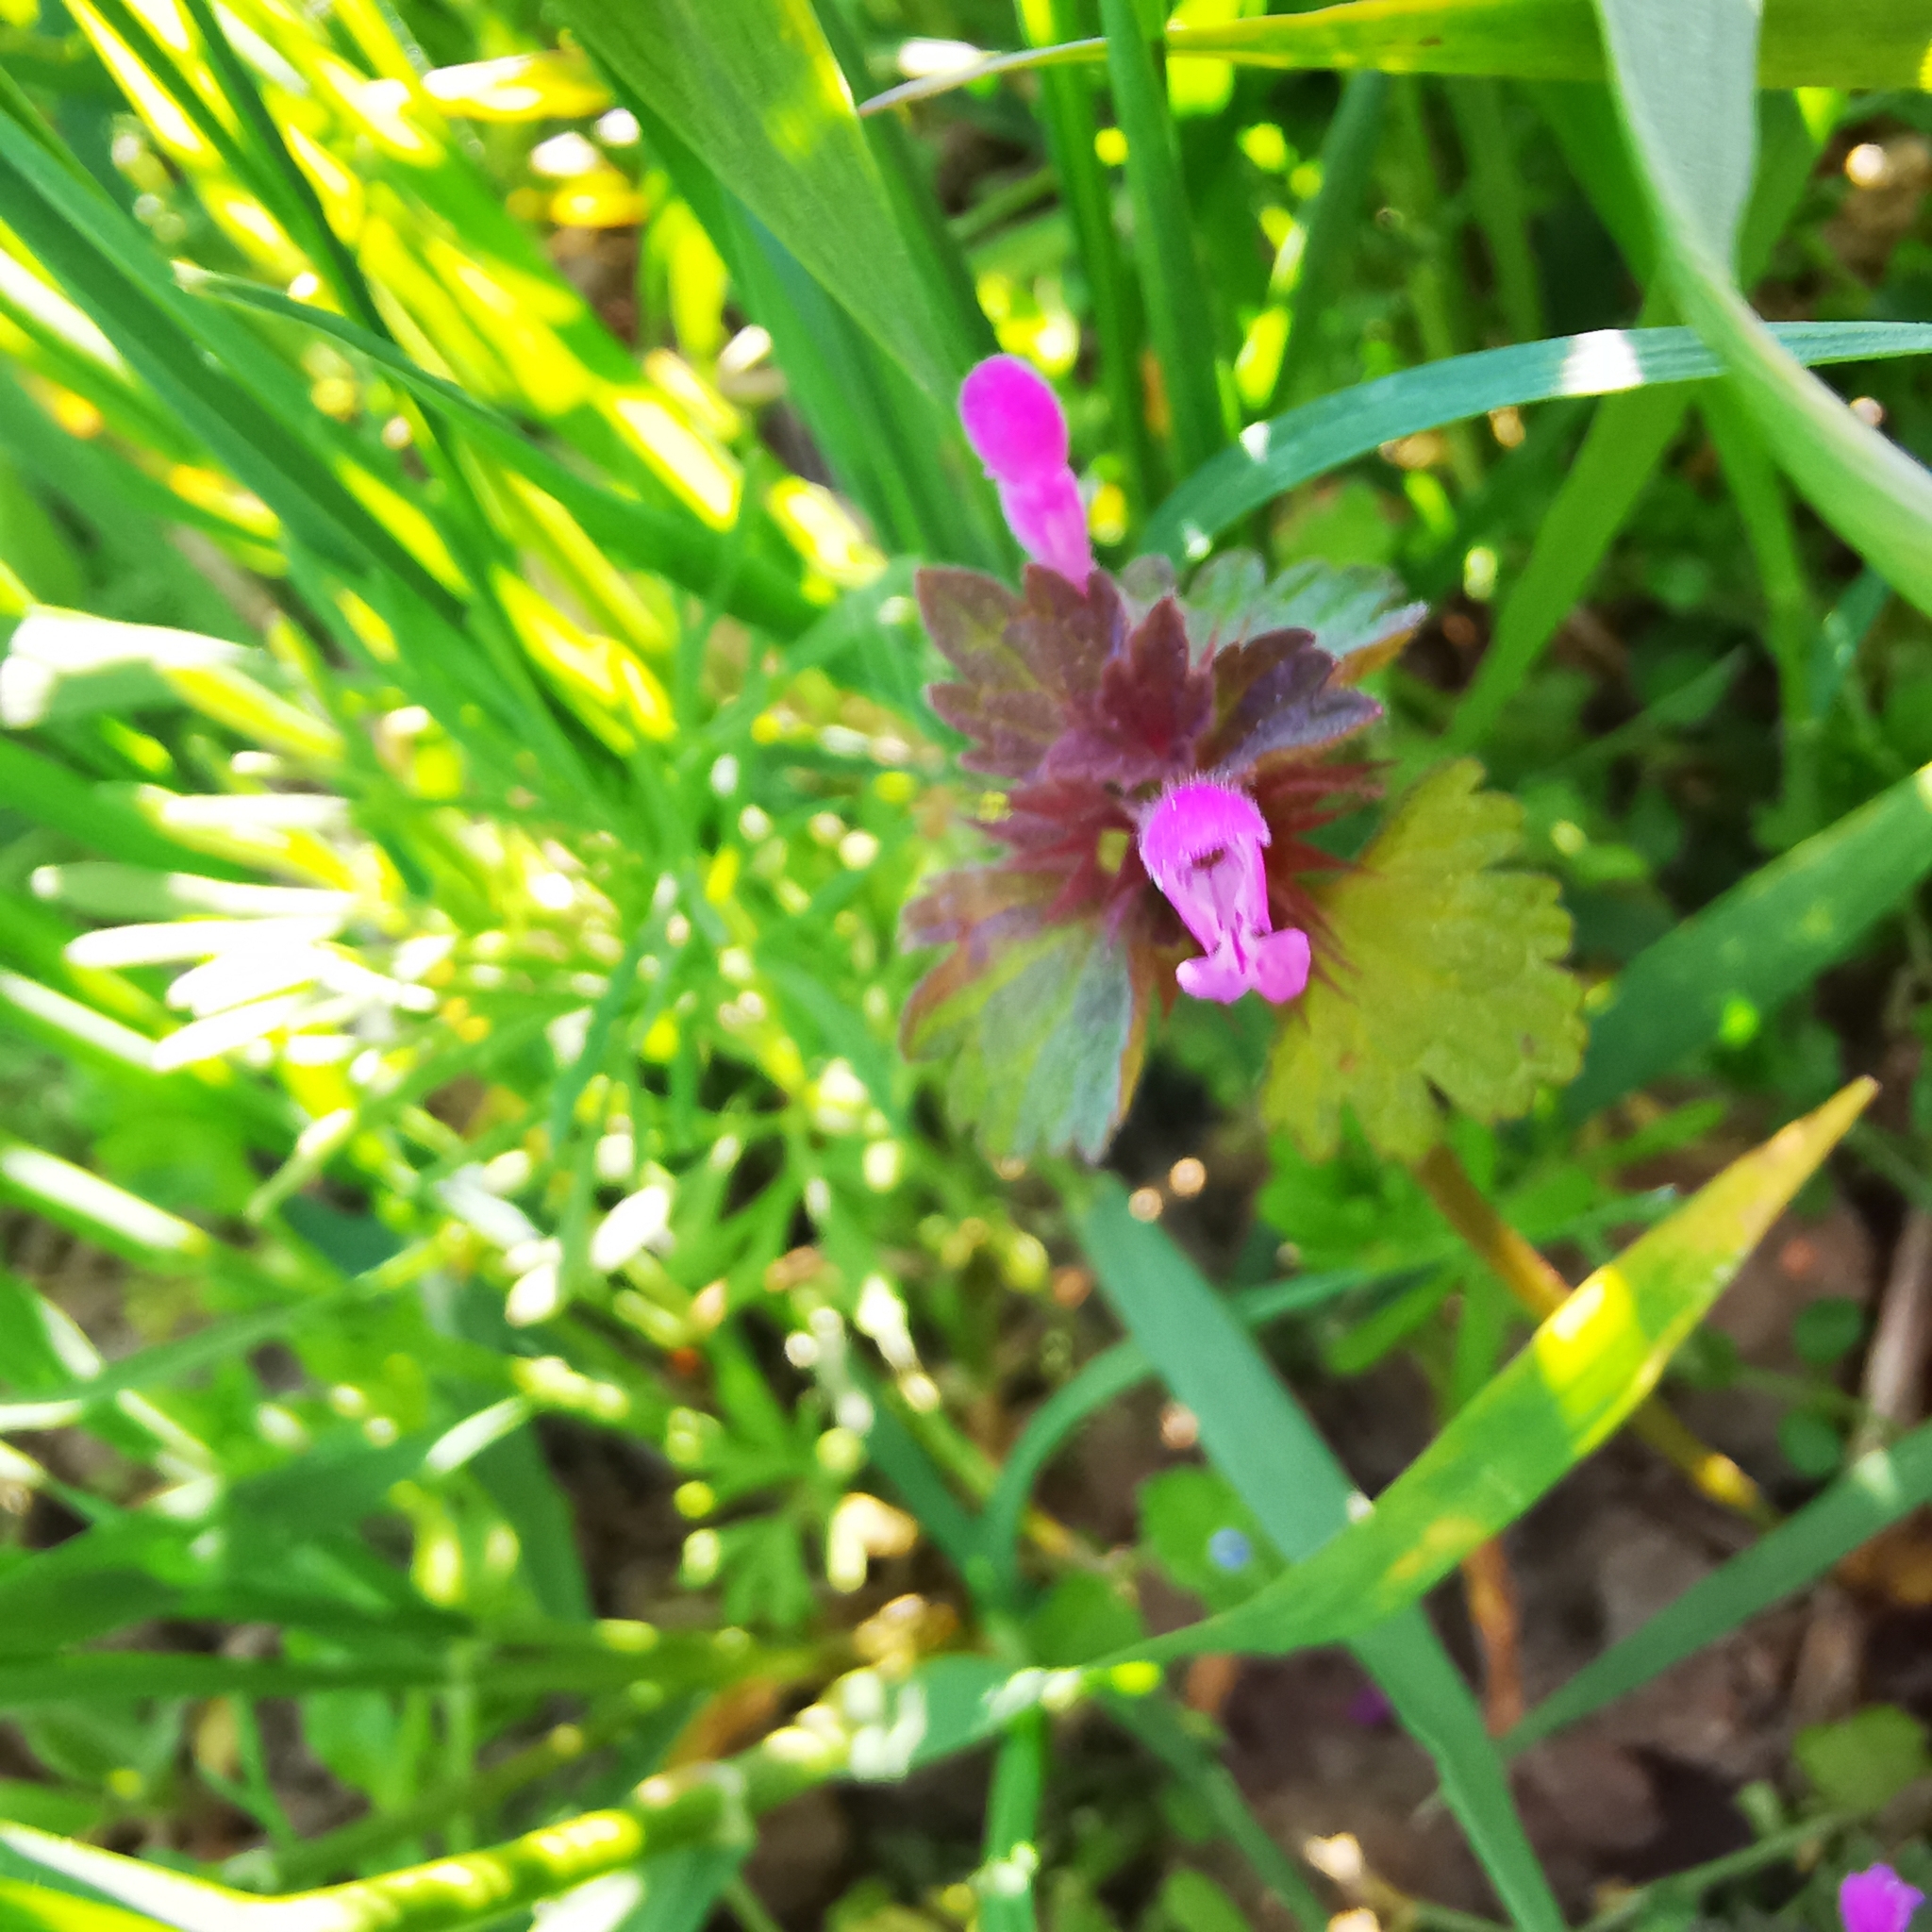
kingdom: Plantae
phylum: Tracheophyta
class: Magnoliopsida
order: Lamiales
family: Lamiaceae
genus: Lamium
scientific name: Lamium hybridum
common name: Cut-leaved dead-nettle
